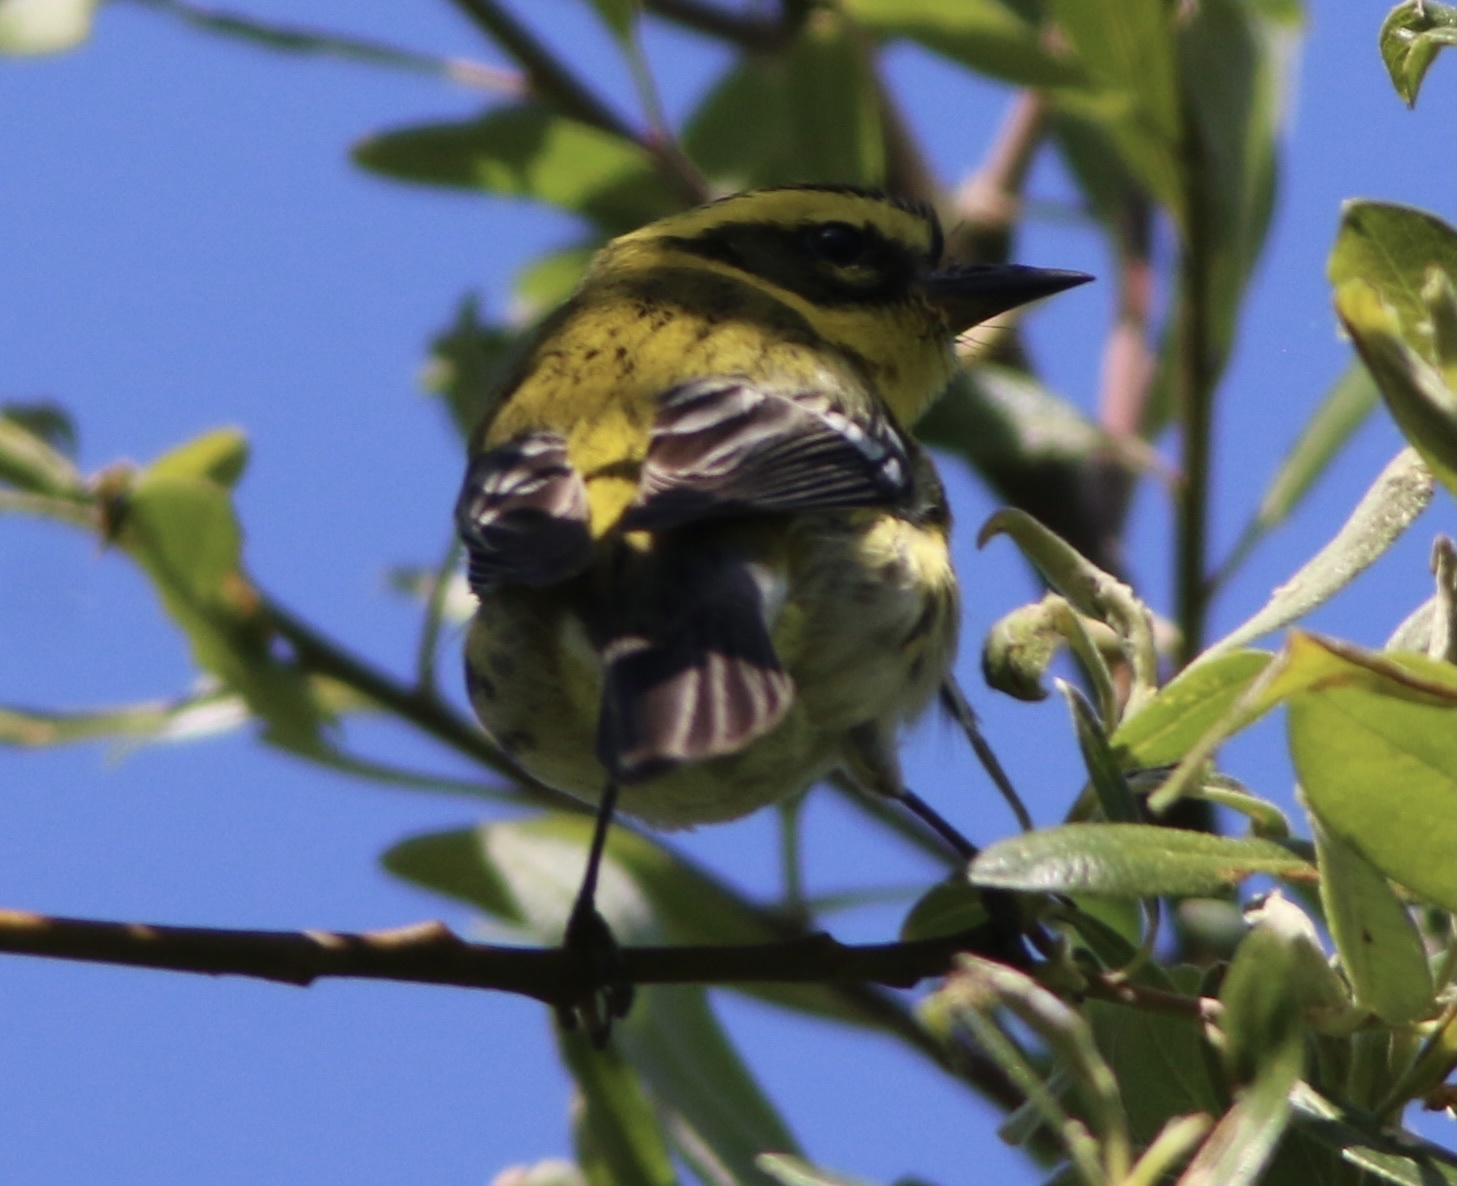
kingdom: Animalia
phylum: Chordata
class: Aves
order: Passeriformes
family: Parulidae
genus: Setophaga
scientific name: Setophaga townsendi
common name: Townsend's warbler
